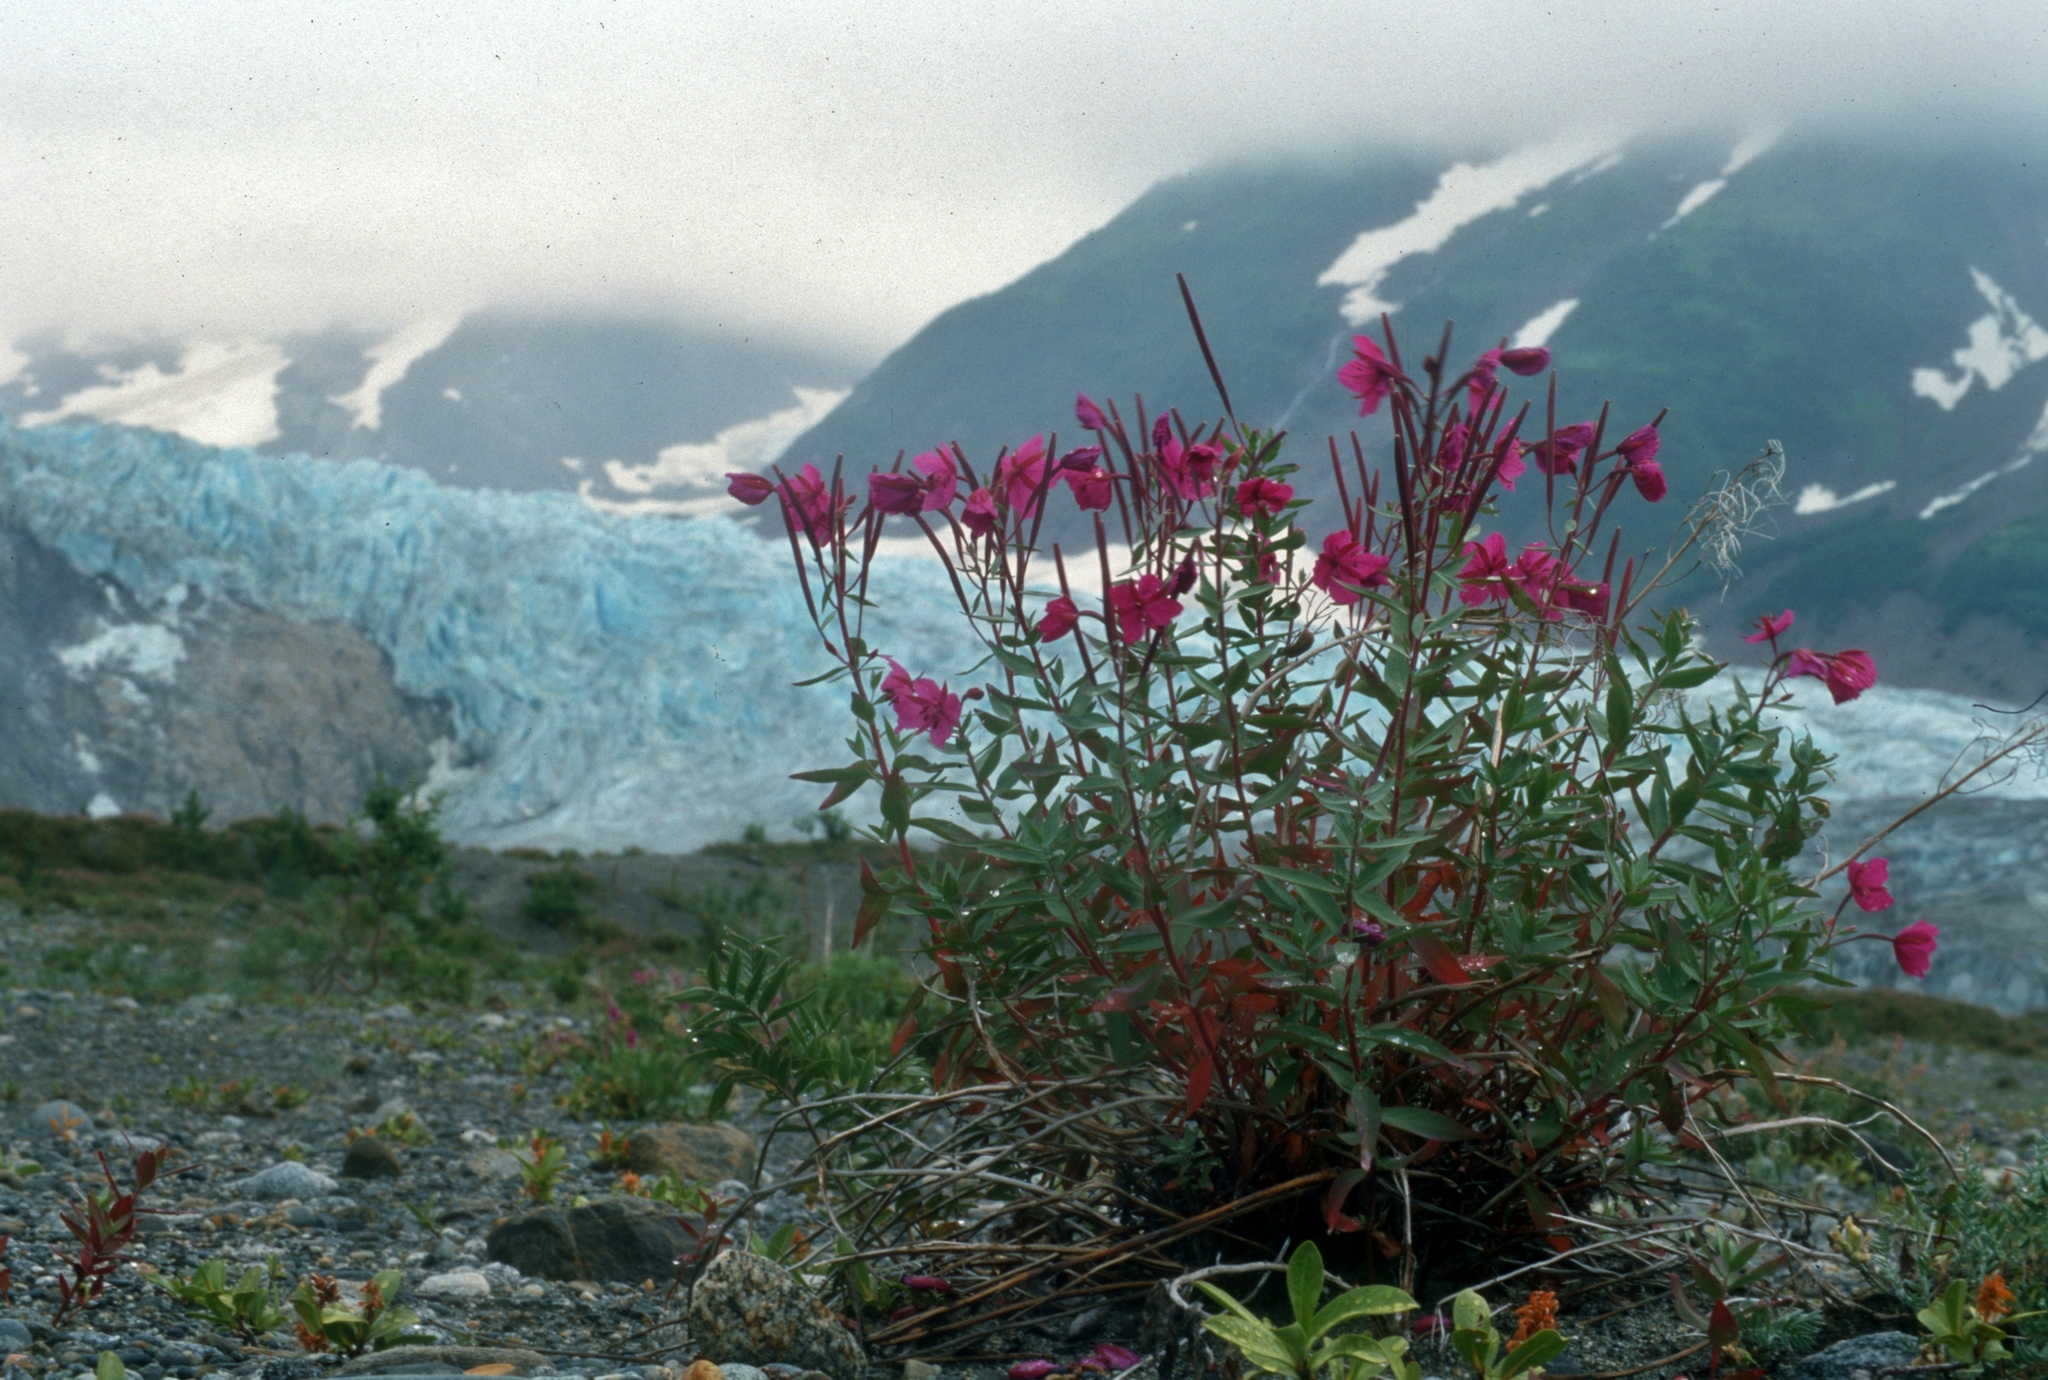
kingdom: Plantae
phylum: Tracheophyta
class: Magnoliopsida
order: Myrtales
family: Onagraceae
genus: Chamaenerion
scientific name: Chamaenerion latifolium
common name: Dwarf fireweed
